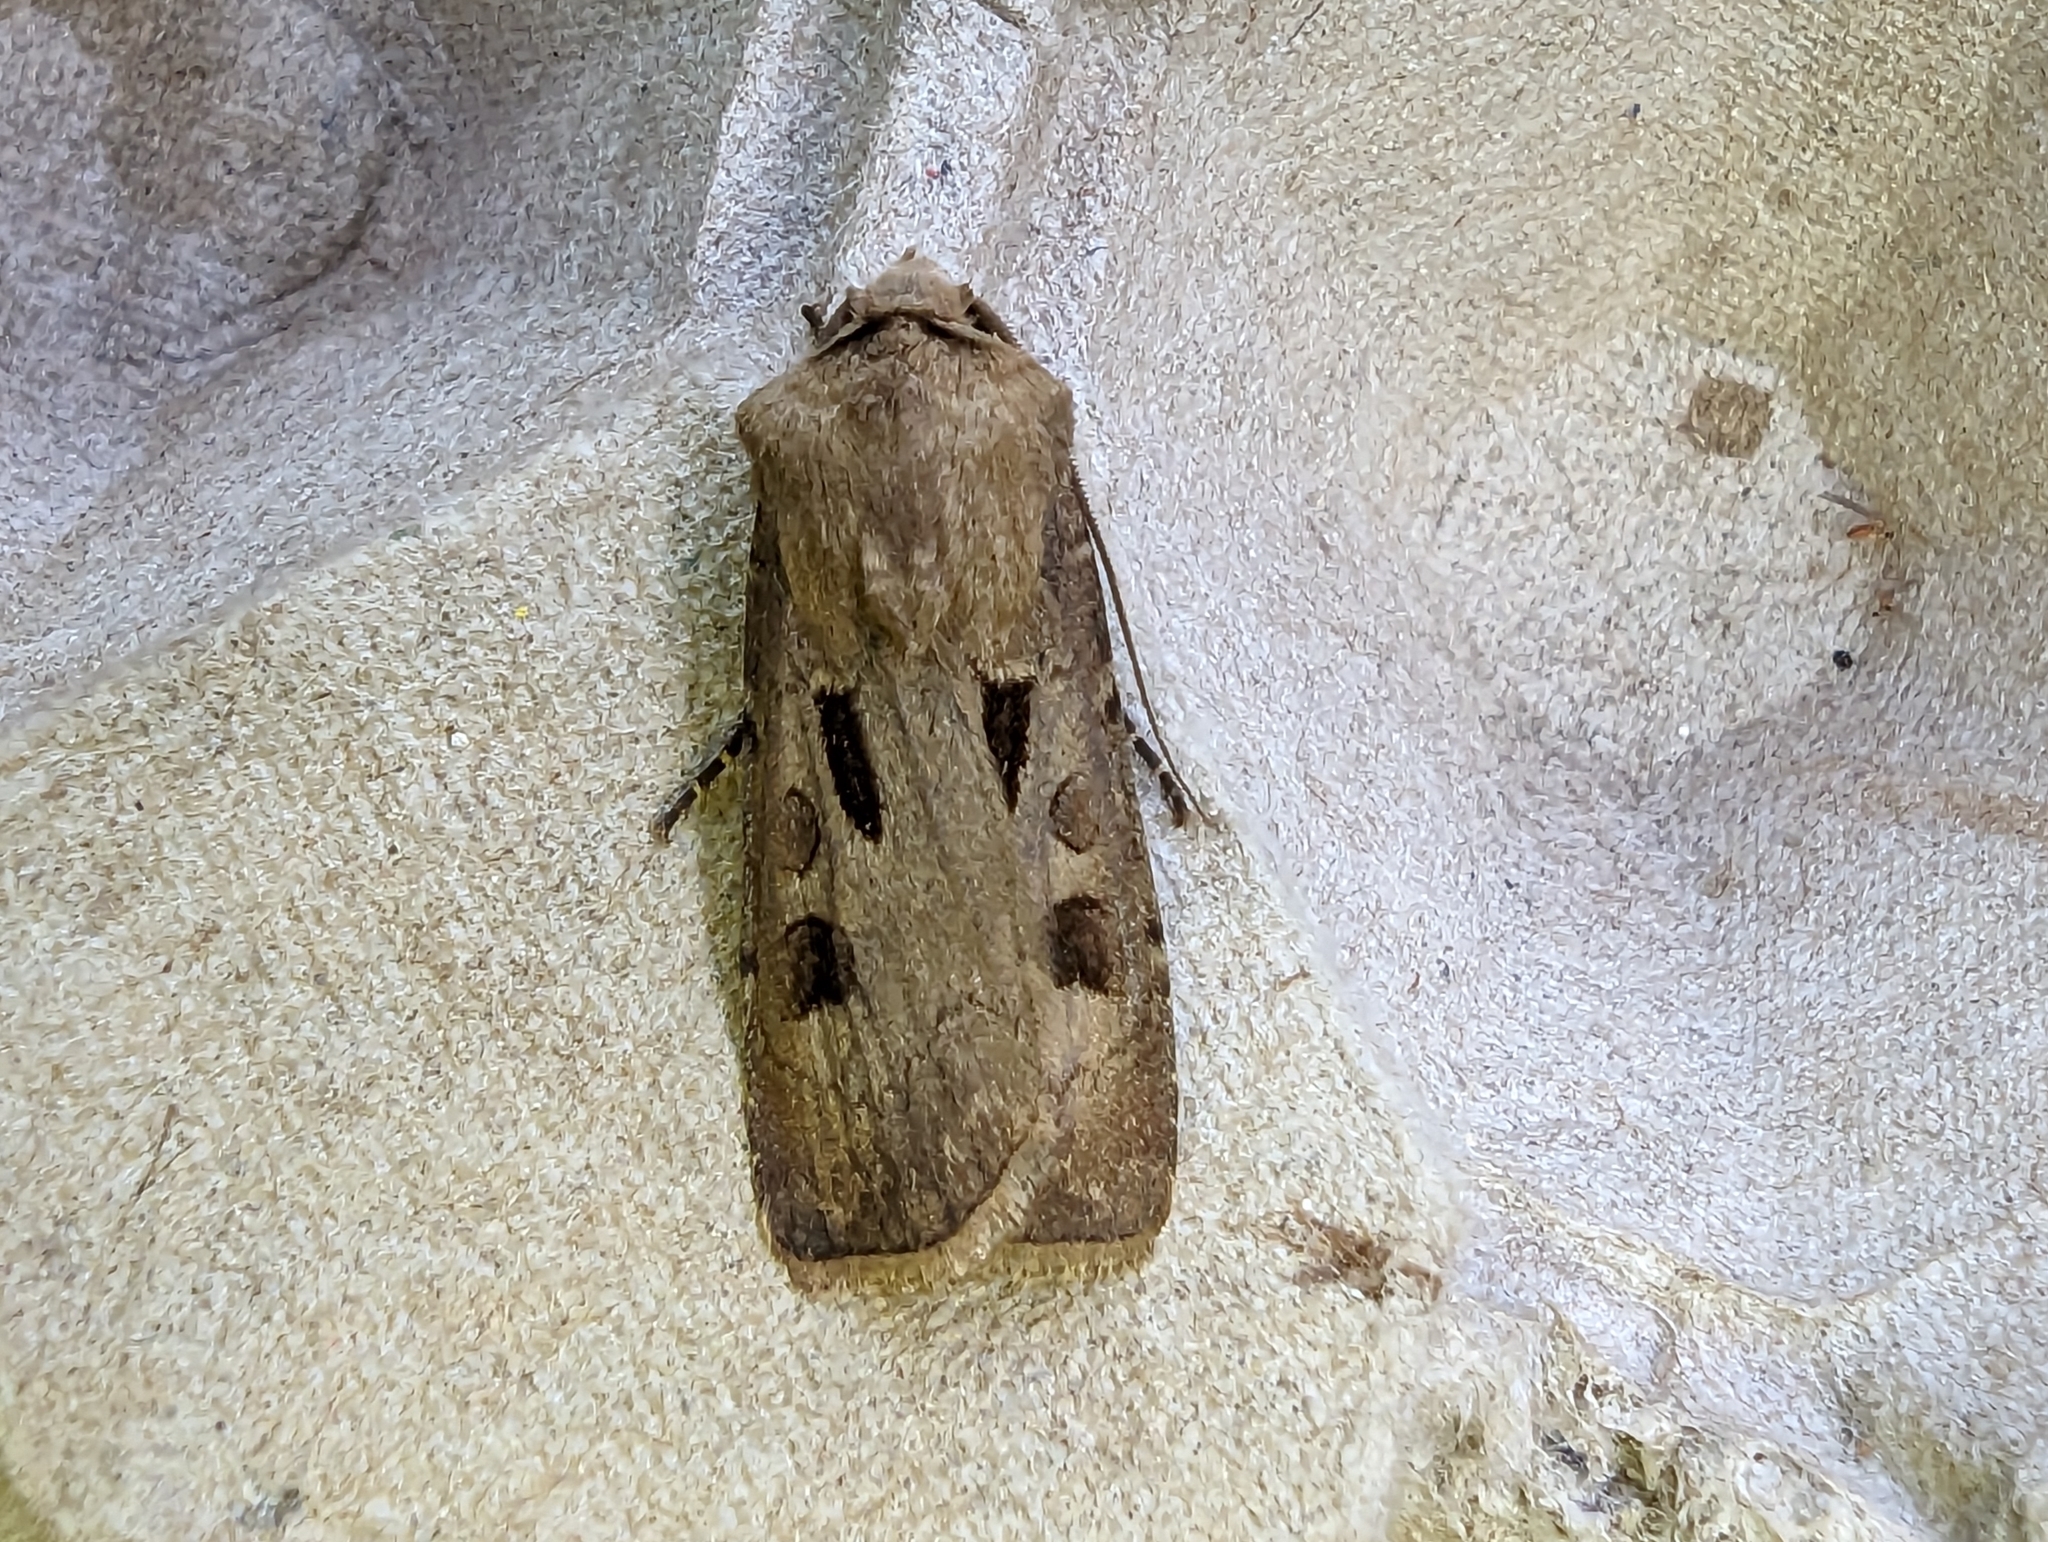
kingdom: Animalia
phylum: Arthropoda
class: Insecta
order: Lepidoptera
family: Noctuidae
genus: Agrotis
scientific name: Agrotis exclamationis
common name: Heart and dart
